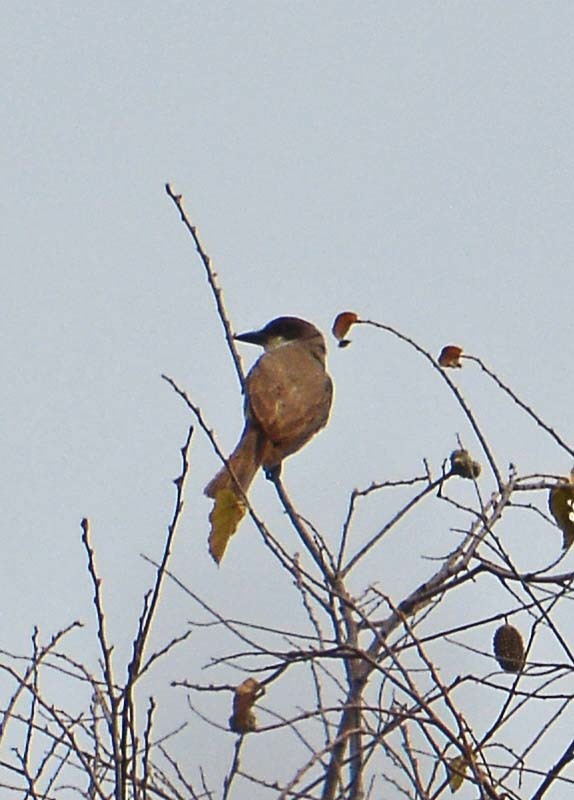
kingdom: Animalia
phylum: Chordata
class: Aves
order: Passeriformes
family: Tyrannidae
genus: Tyrannus
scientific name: Tyrannus crassirostris
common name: Thick-billed kingbird
